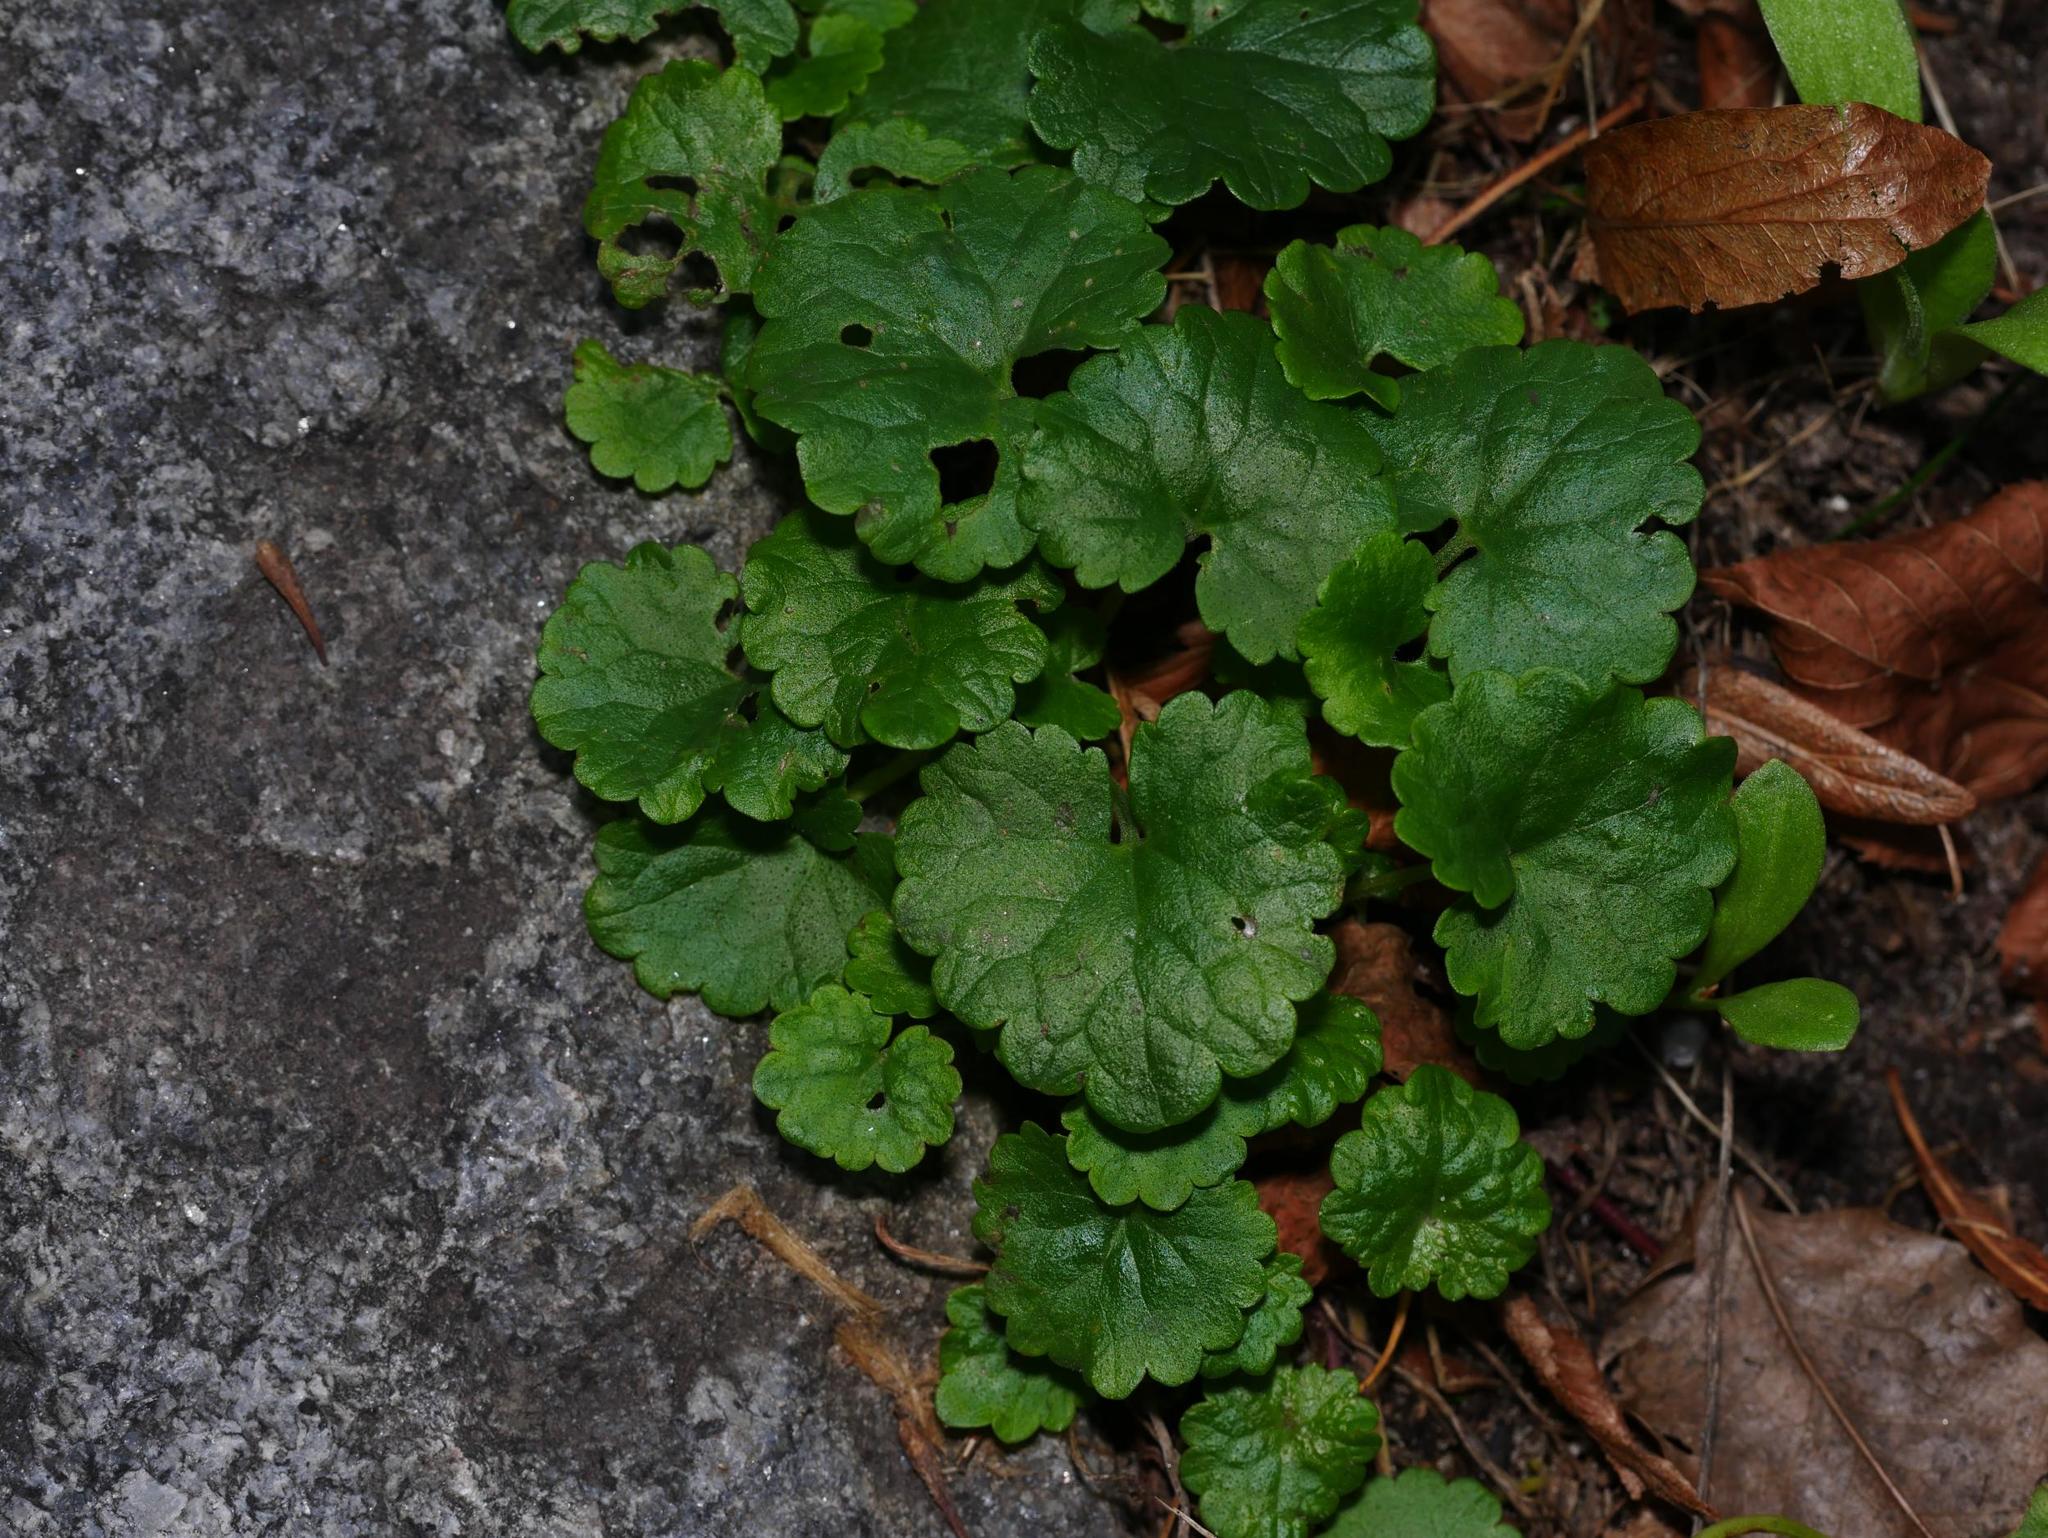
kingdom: Plantae
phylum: Tracheophyta
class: Magnoliopsida
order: Lamiales
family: Lamiaceae
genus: Glechoma
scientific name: Glechoma hederacea
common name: Ground ivy
